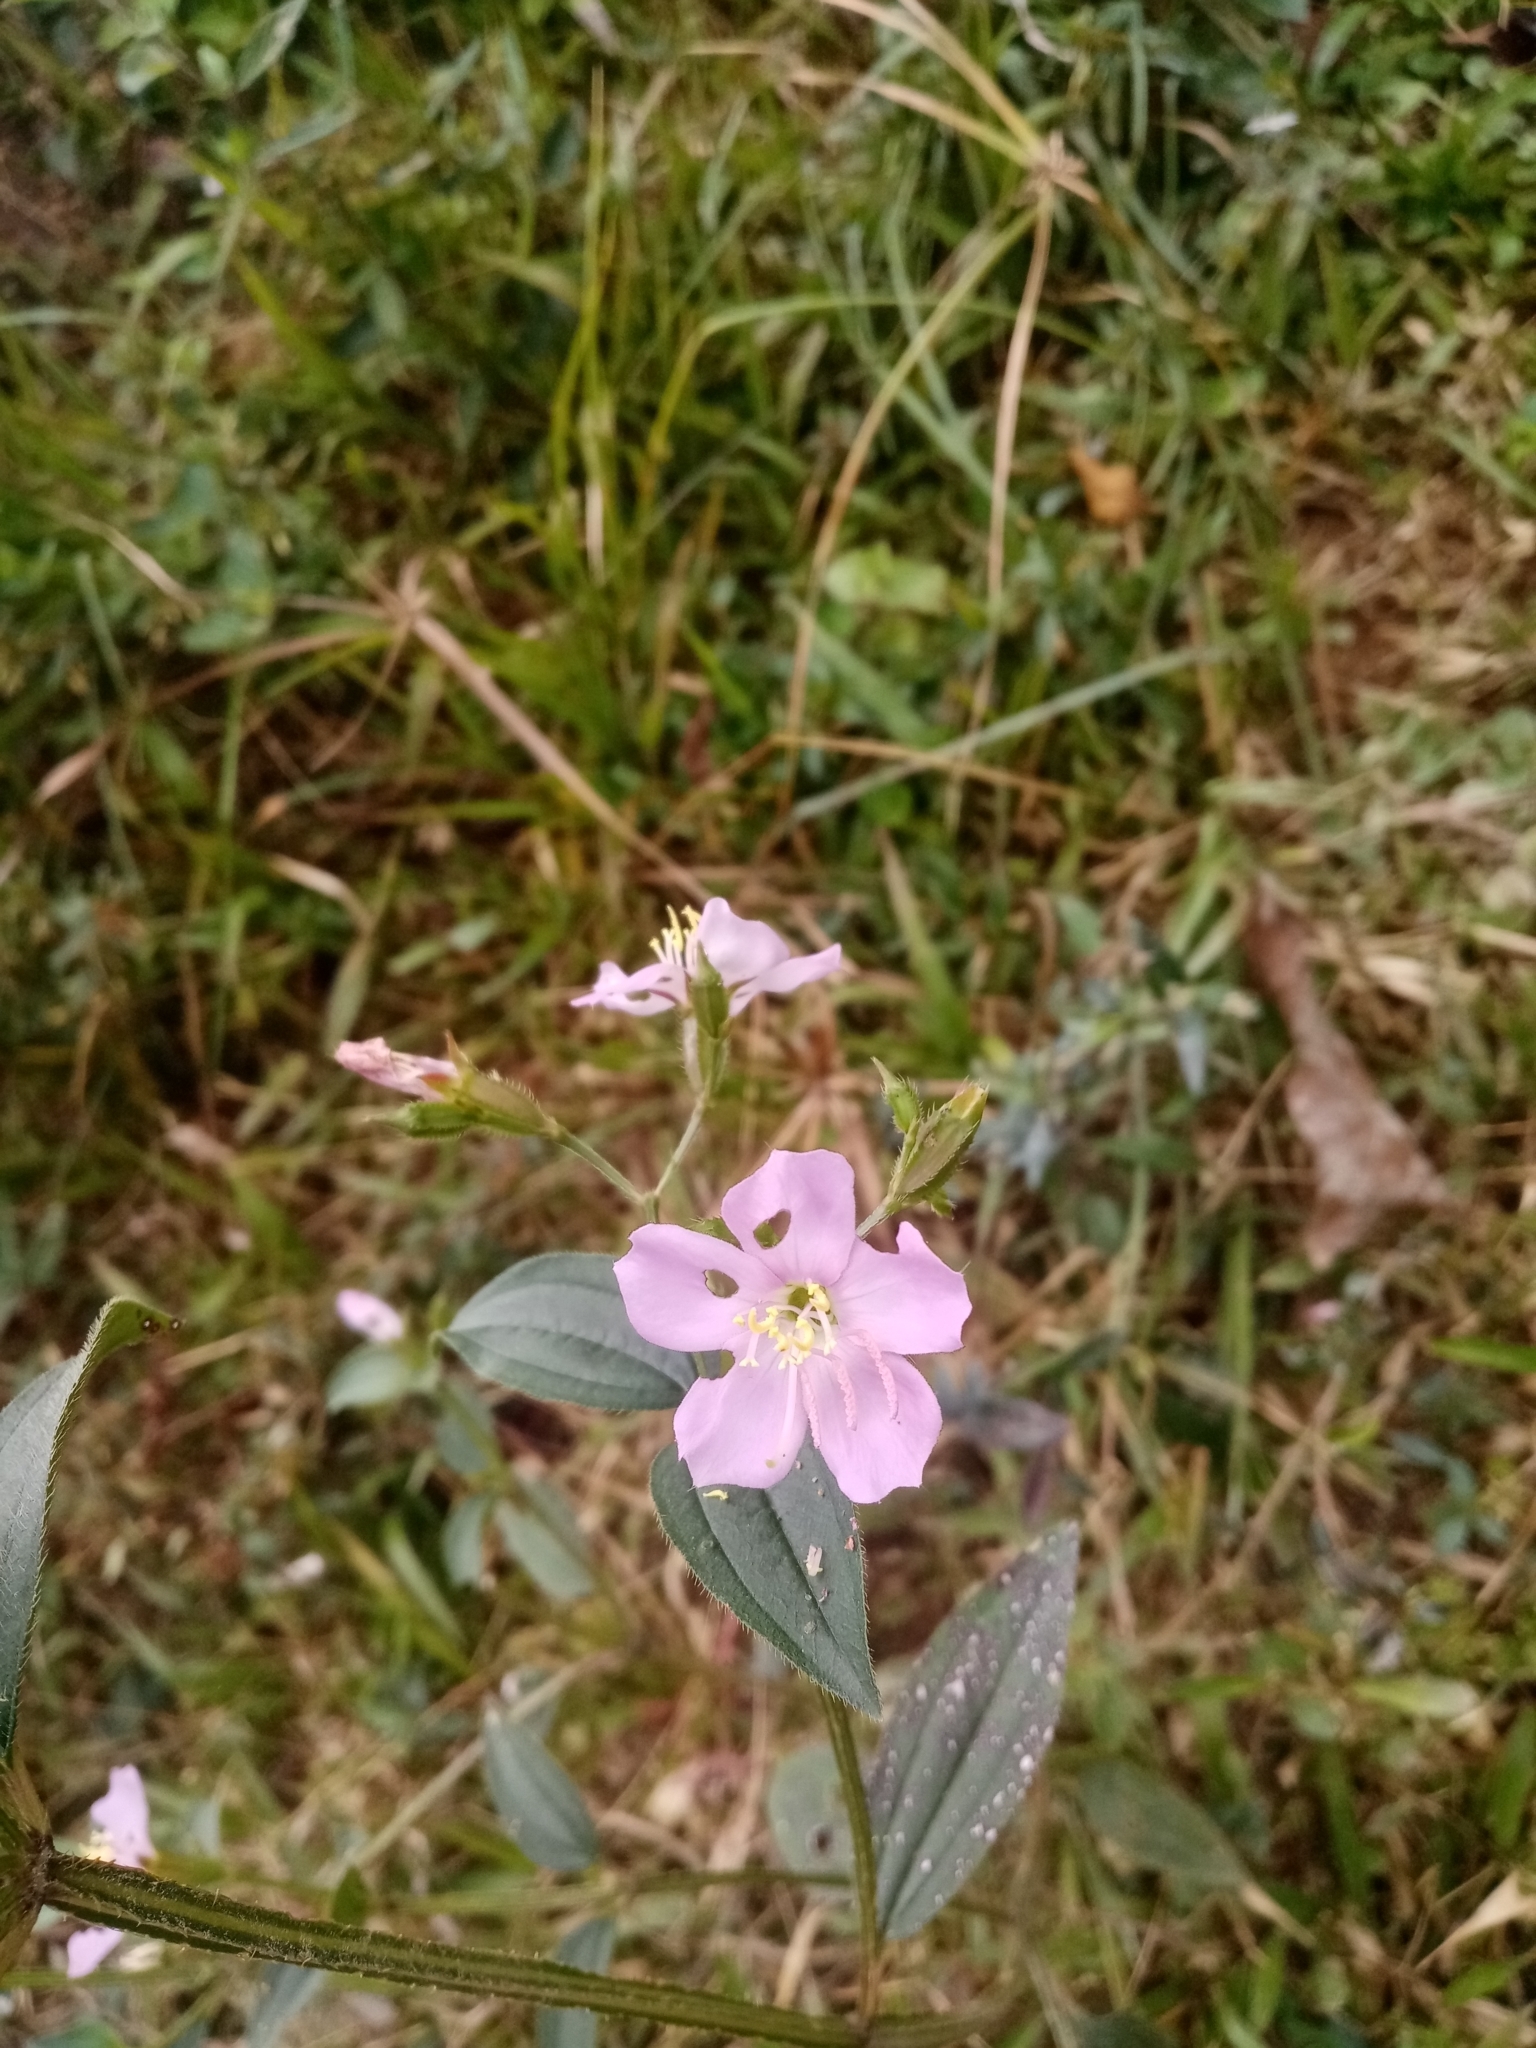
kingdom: Plantae
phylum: Tracheophyta
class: Magnoliopsida
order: Myrtales
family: Melastomataceae
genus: Pterogastra
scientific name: Pterogastra divaricata
